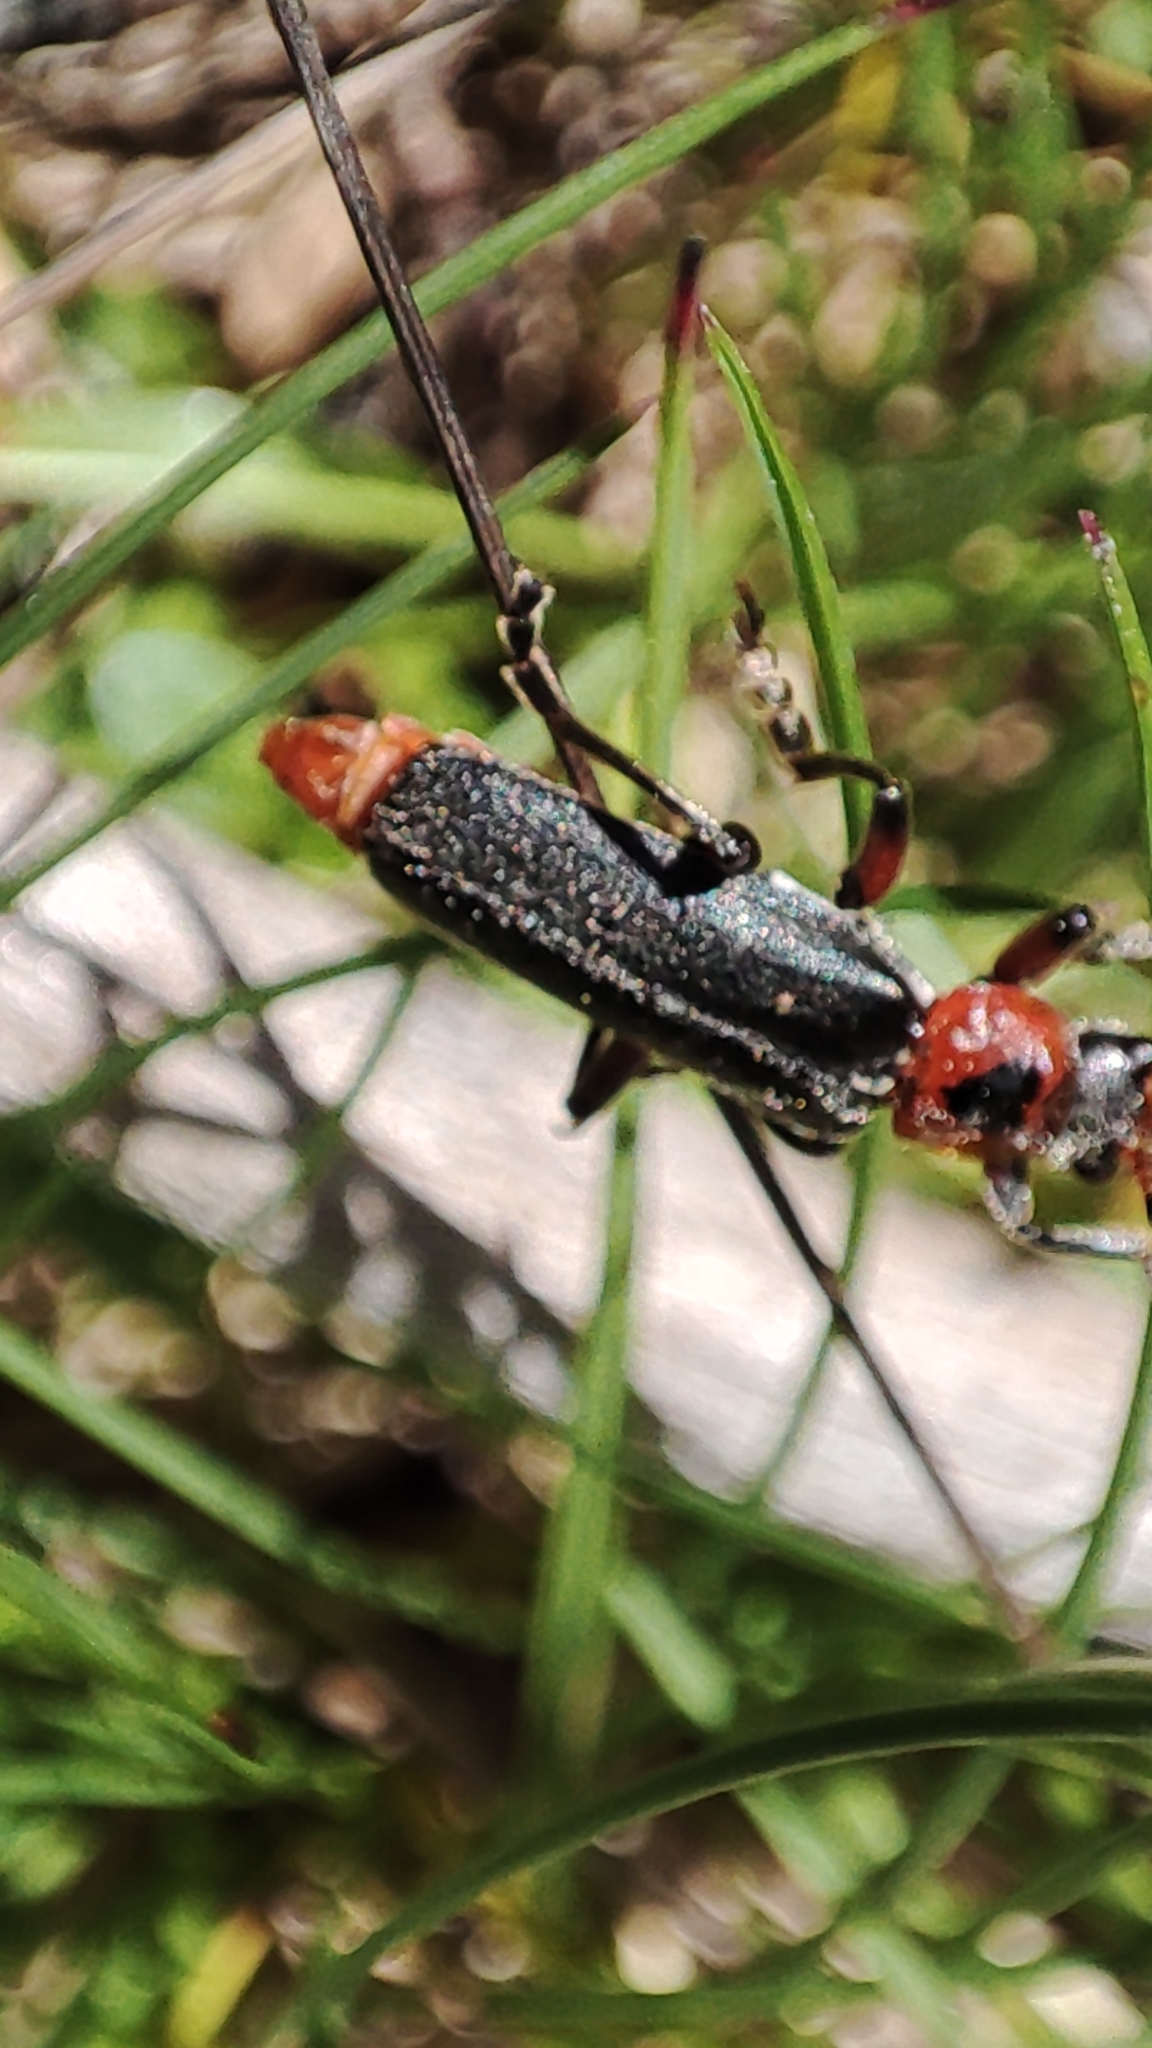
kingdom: Animalia
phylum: Arthropoda
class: Insecta
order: Coleoptera
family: Cantharidae
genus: Cantharis
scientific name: Cantharis rustica
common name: Soldier beetle
